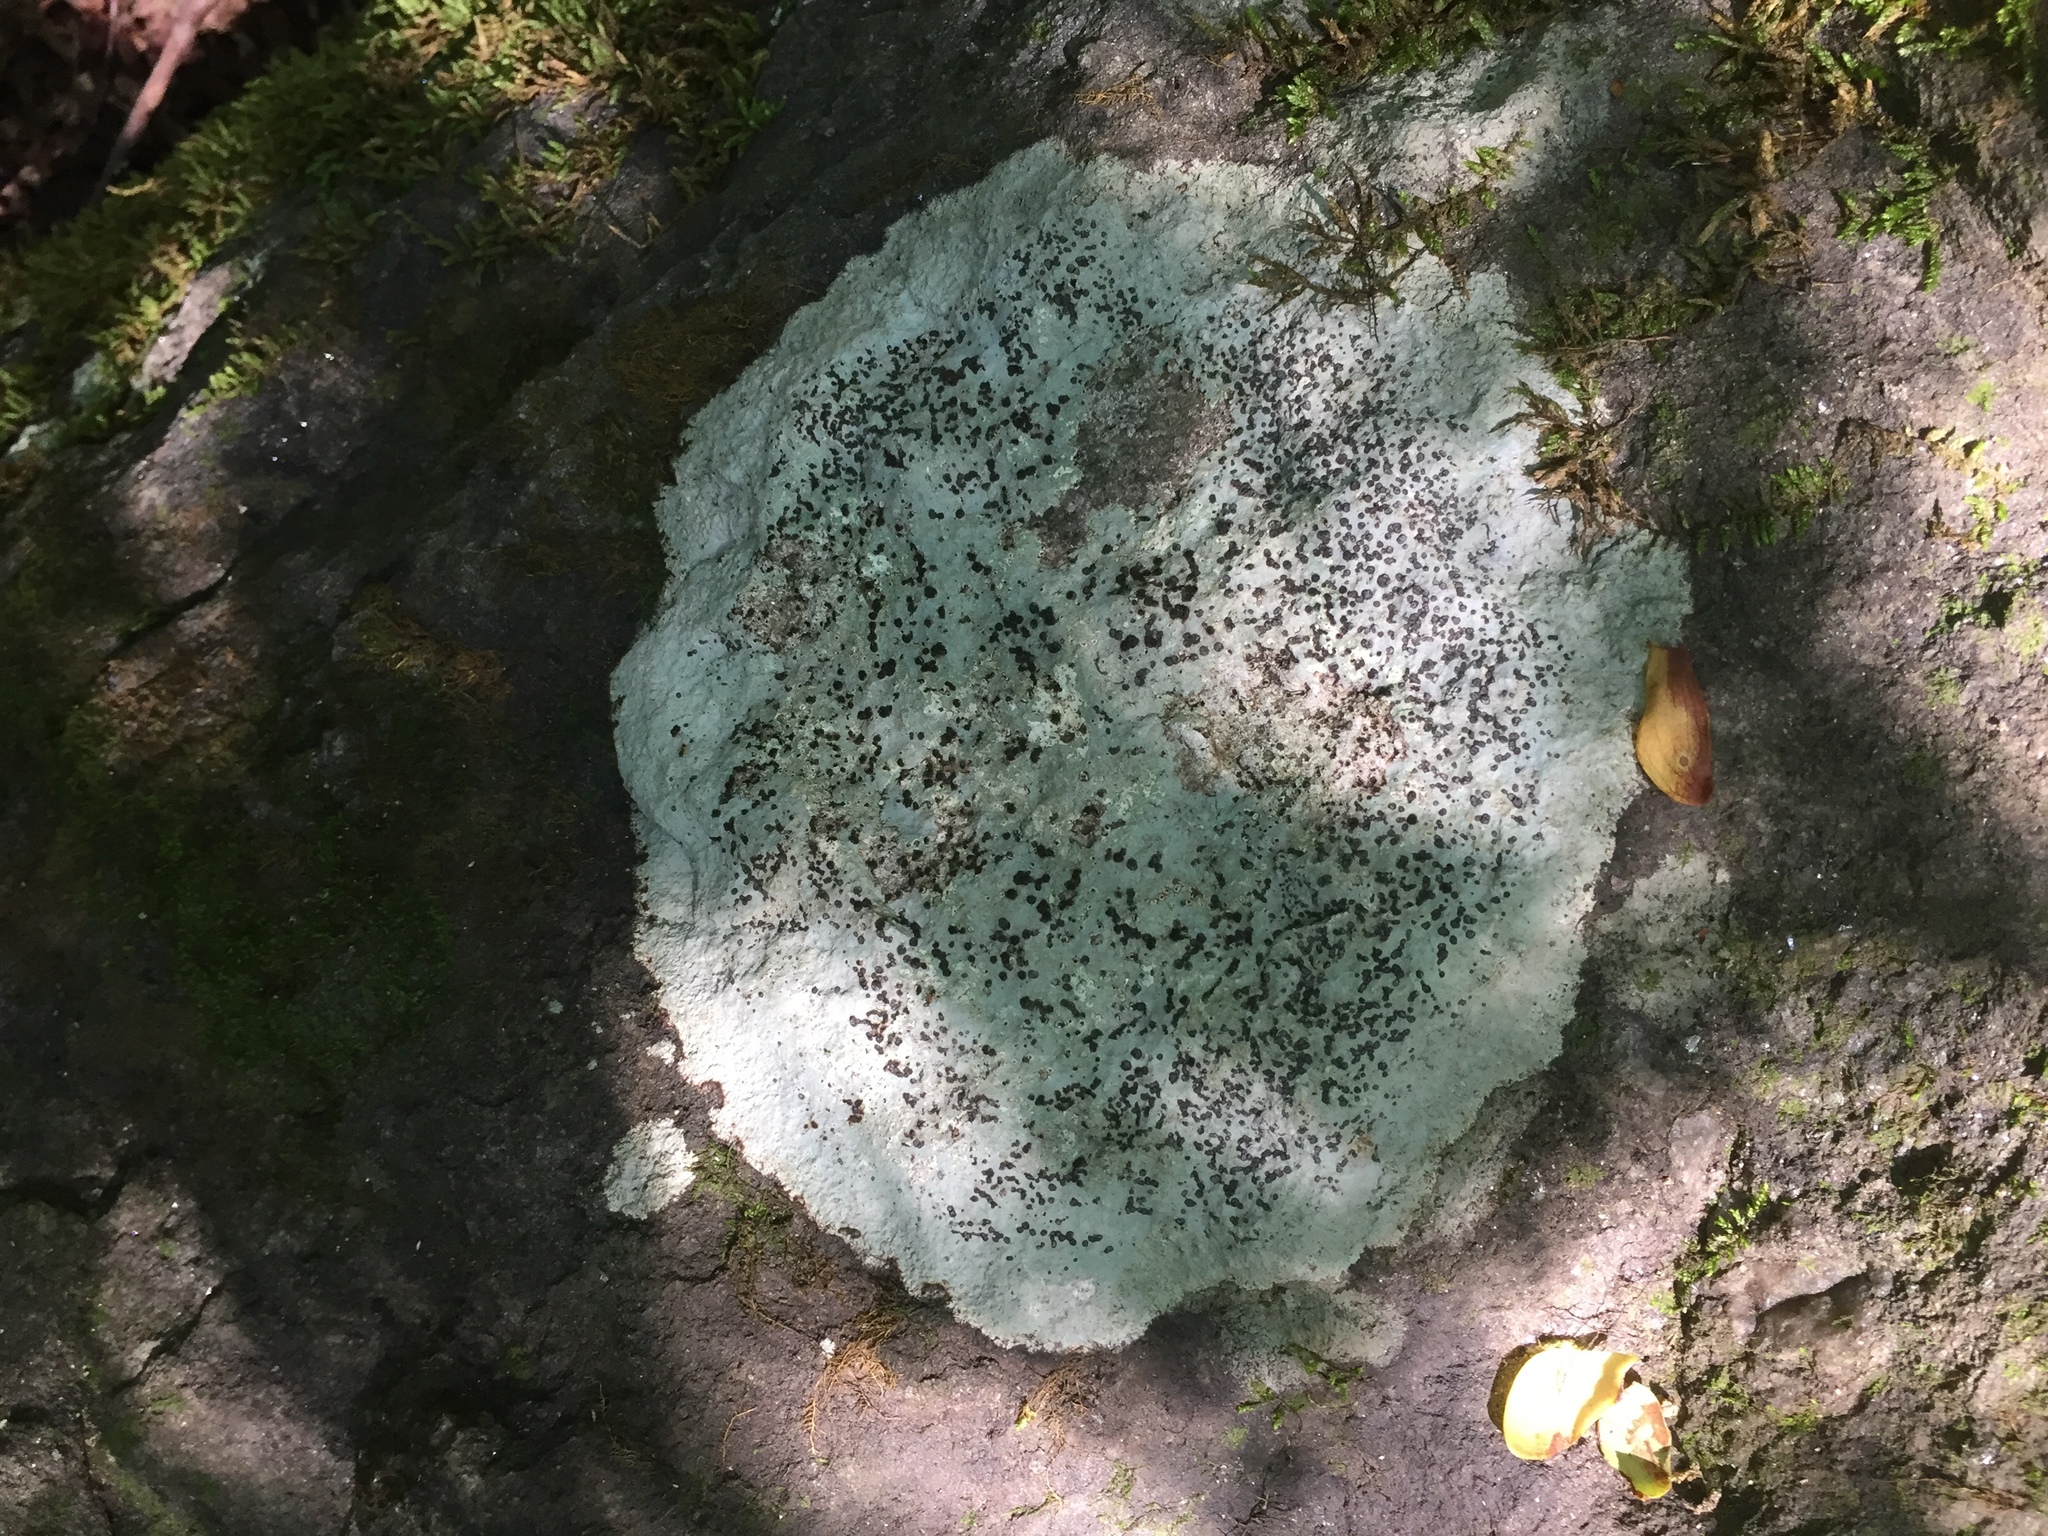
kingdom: Fungi
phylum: Ascomycota
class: Lecanoromycetes
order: Lecideales
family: Lecideaceae
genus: Porpidia
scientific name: Porpidia albocaerulescens
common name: Smokey-eyed boulder lichen
